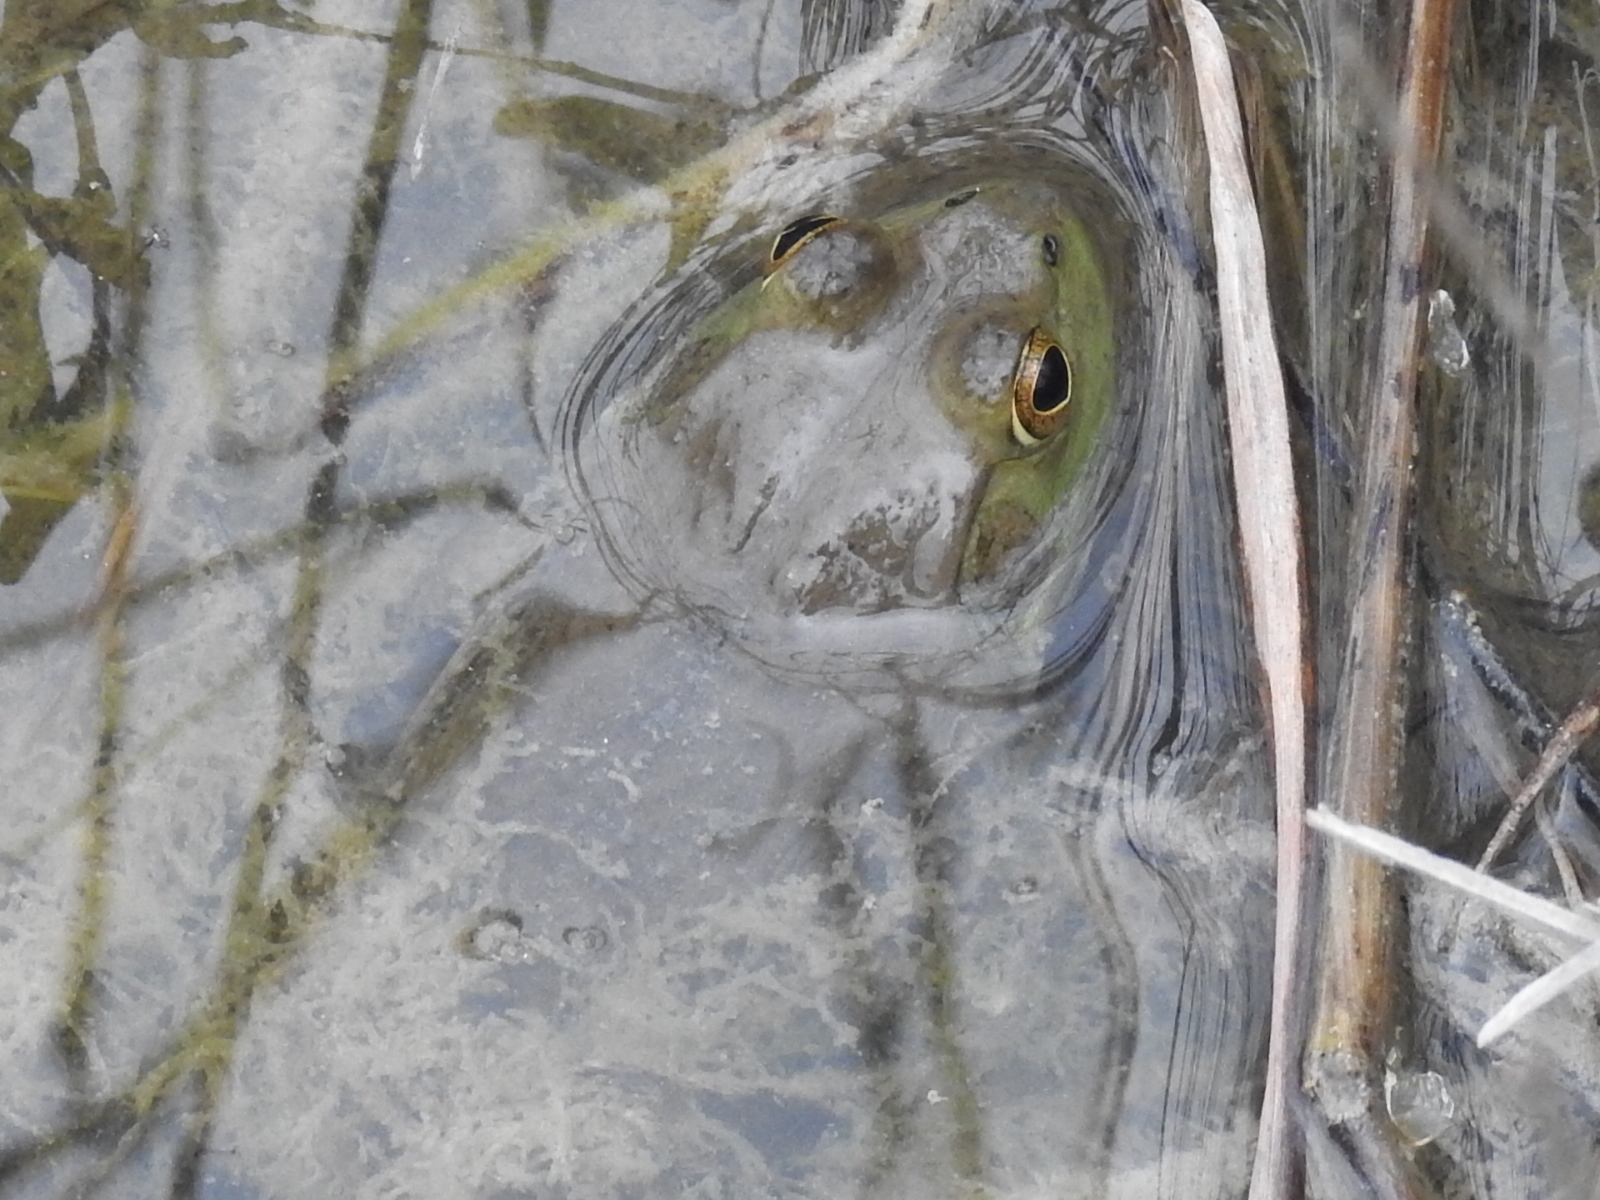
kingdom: Animalia
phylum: Chordata
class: Amphibia
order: Anura
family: Ranidae
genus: Lithobates
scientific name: Lithobates catesbeianus
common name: American bullfrog
